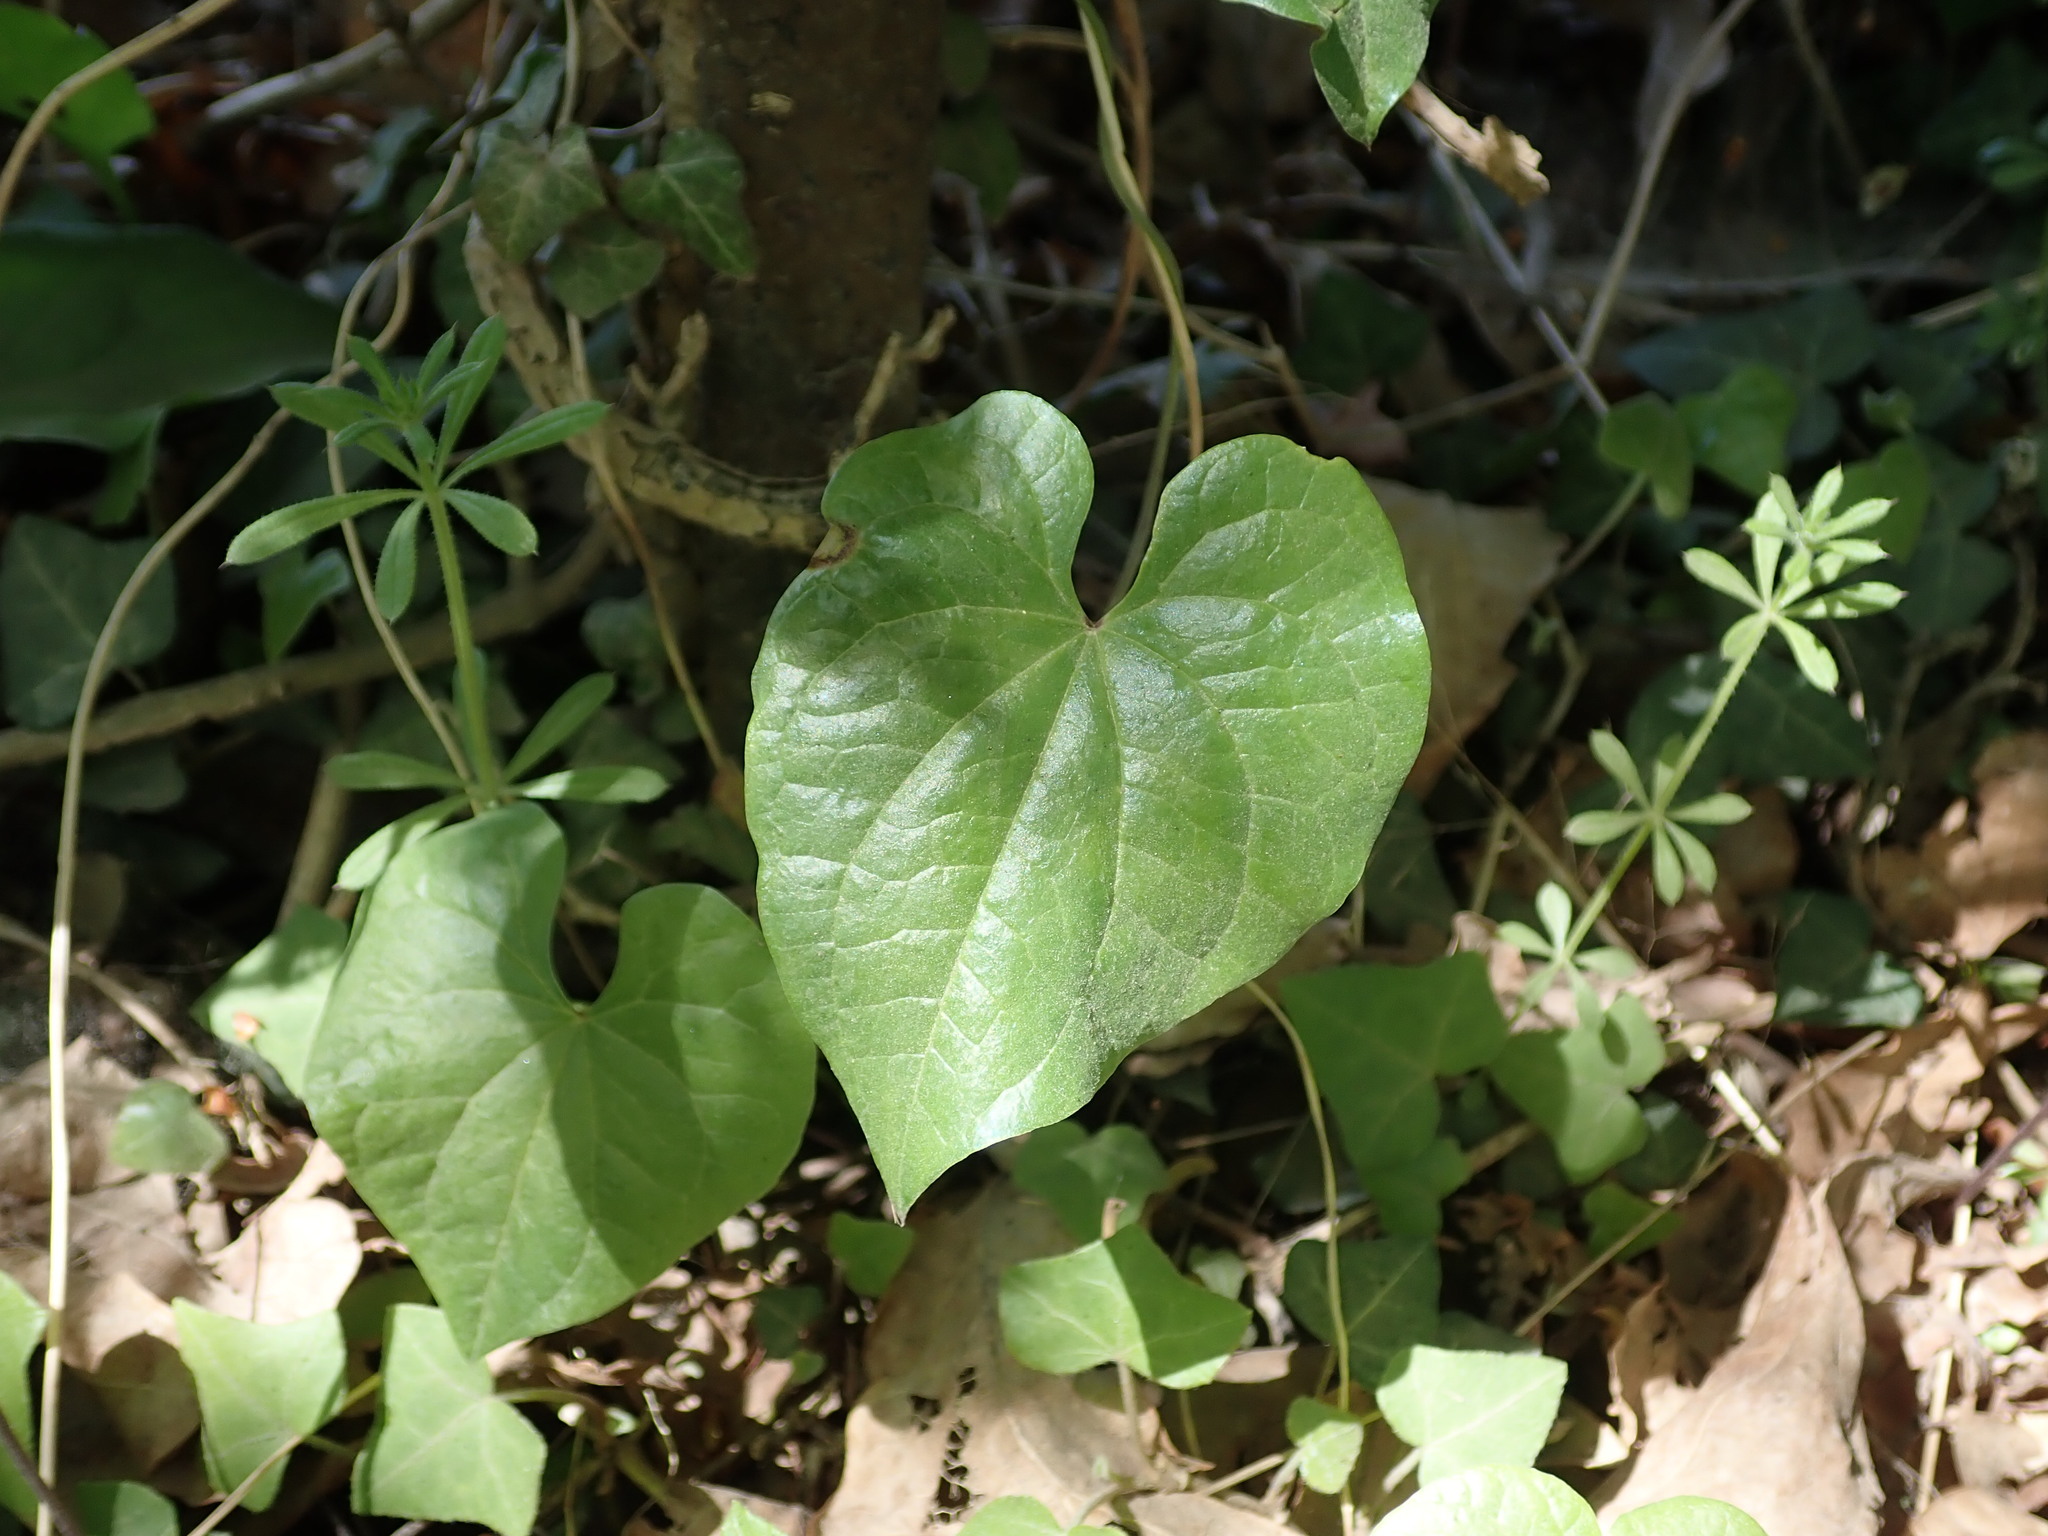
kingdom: Plantae
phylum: Tracheophyta
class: Liliopsida
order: Dioscoreales
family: Dioscoreaceae
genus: Dioscorea
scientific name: Dioscorea communis
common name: Black-bindweed
